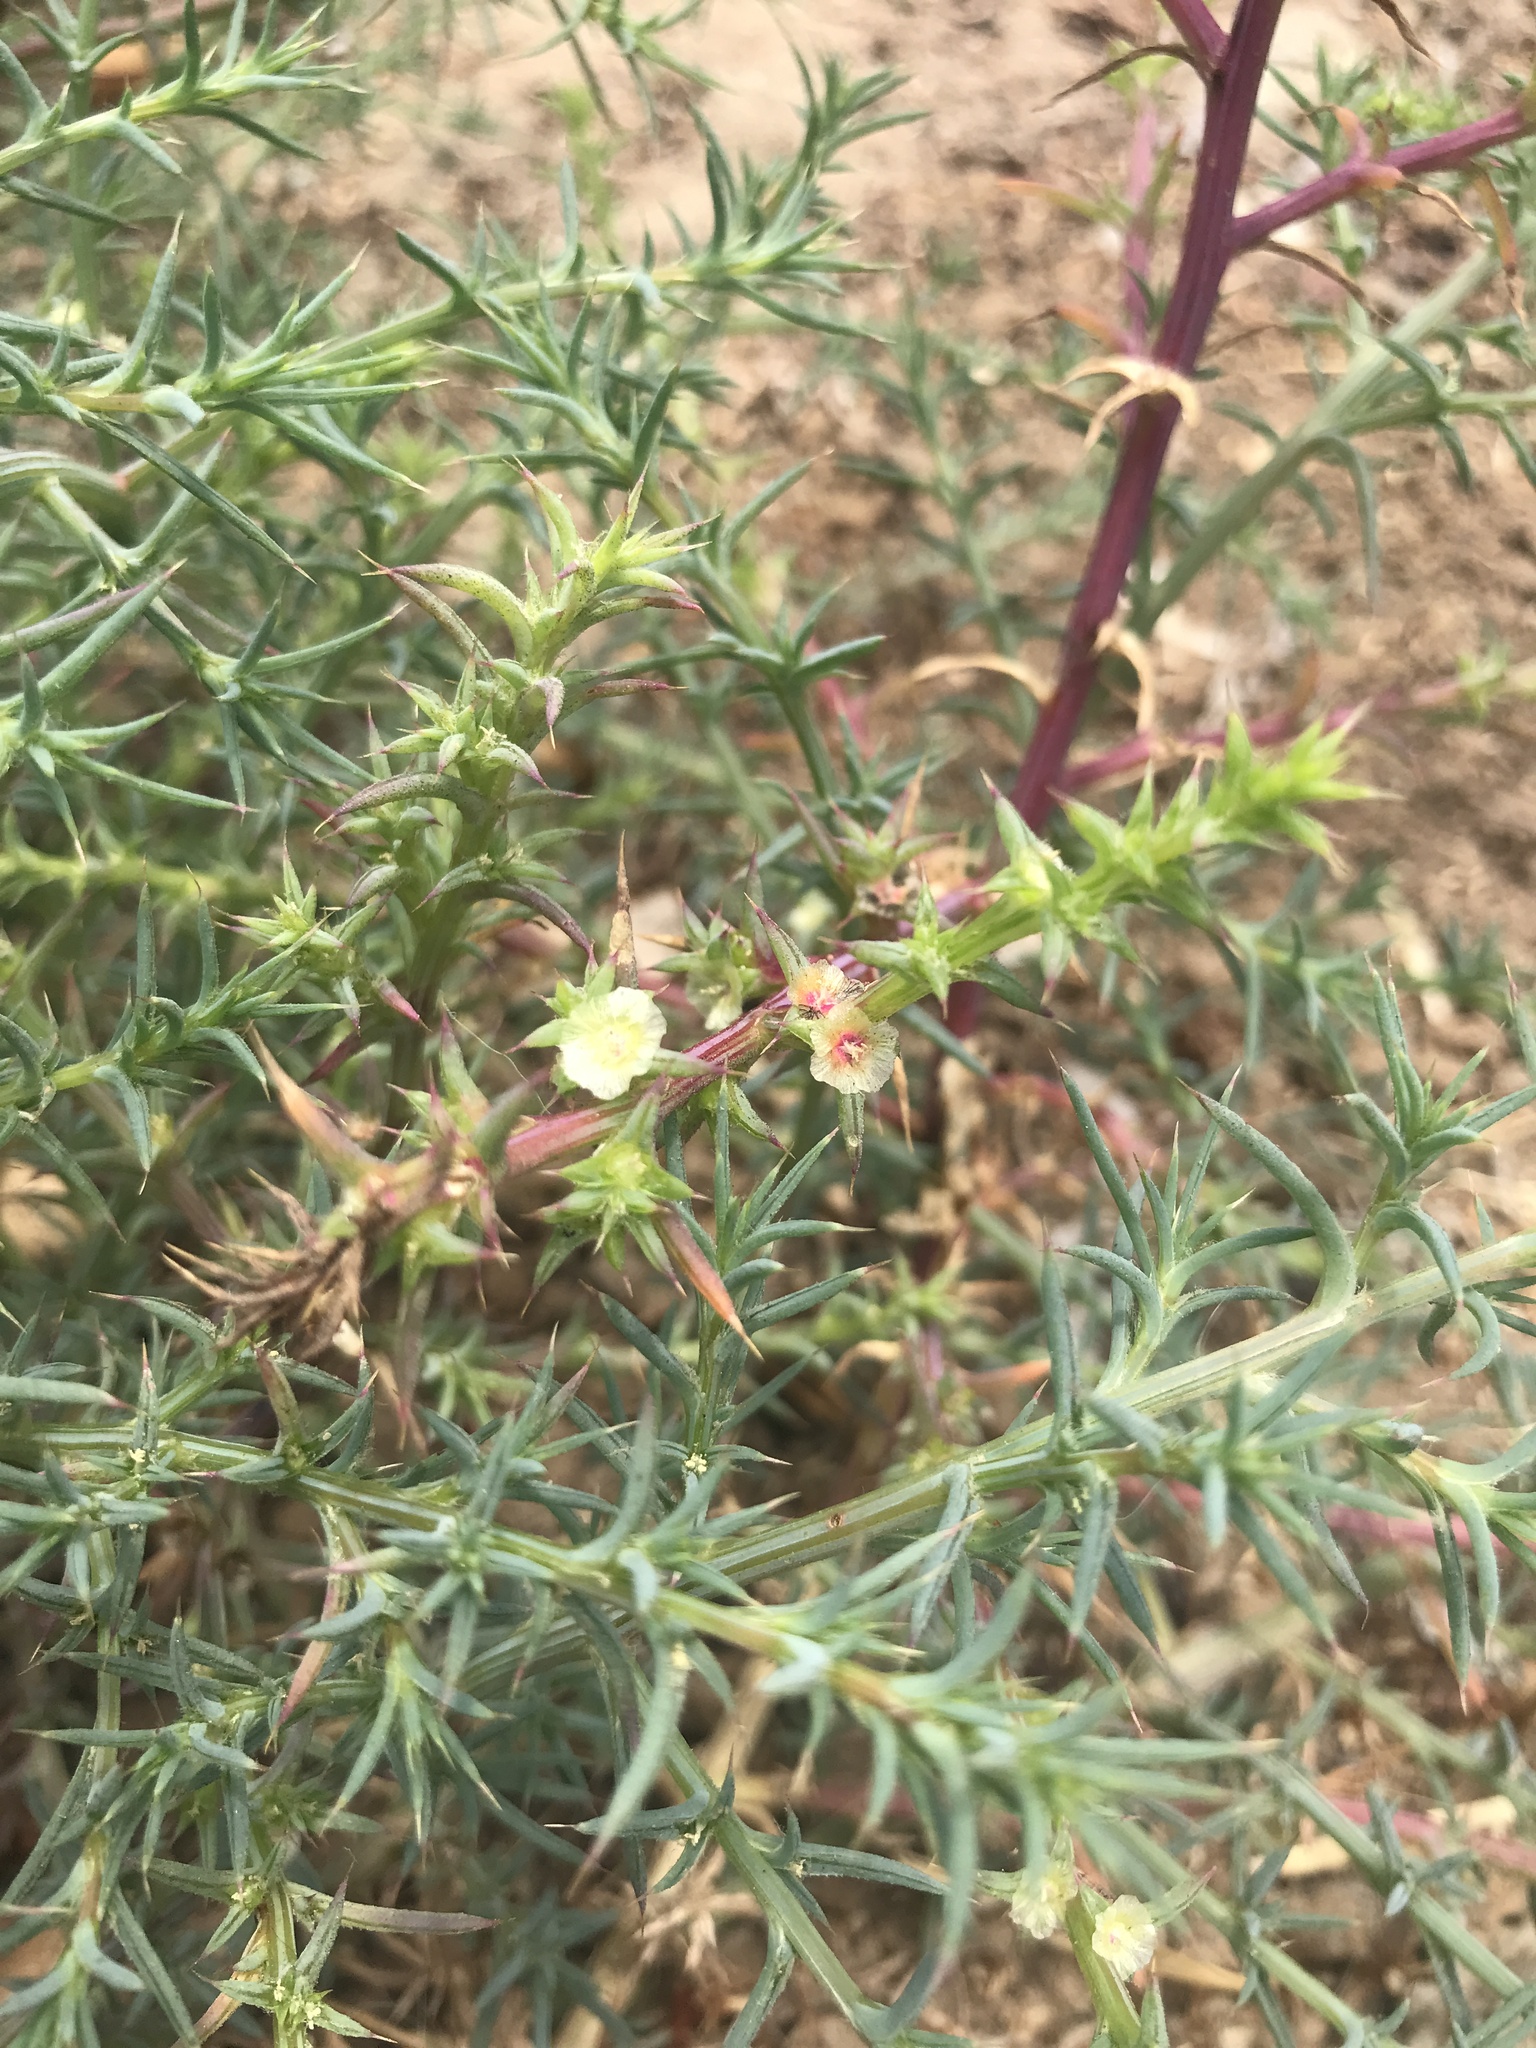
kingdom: Plantae
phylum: Tracheophyta
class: Magnoliopsida
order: Caryophyllales
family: Amaranthaceae
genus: Salsola
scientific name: Salsola australis
